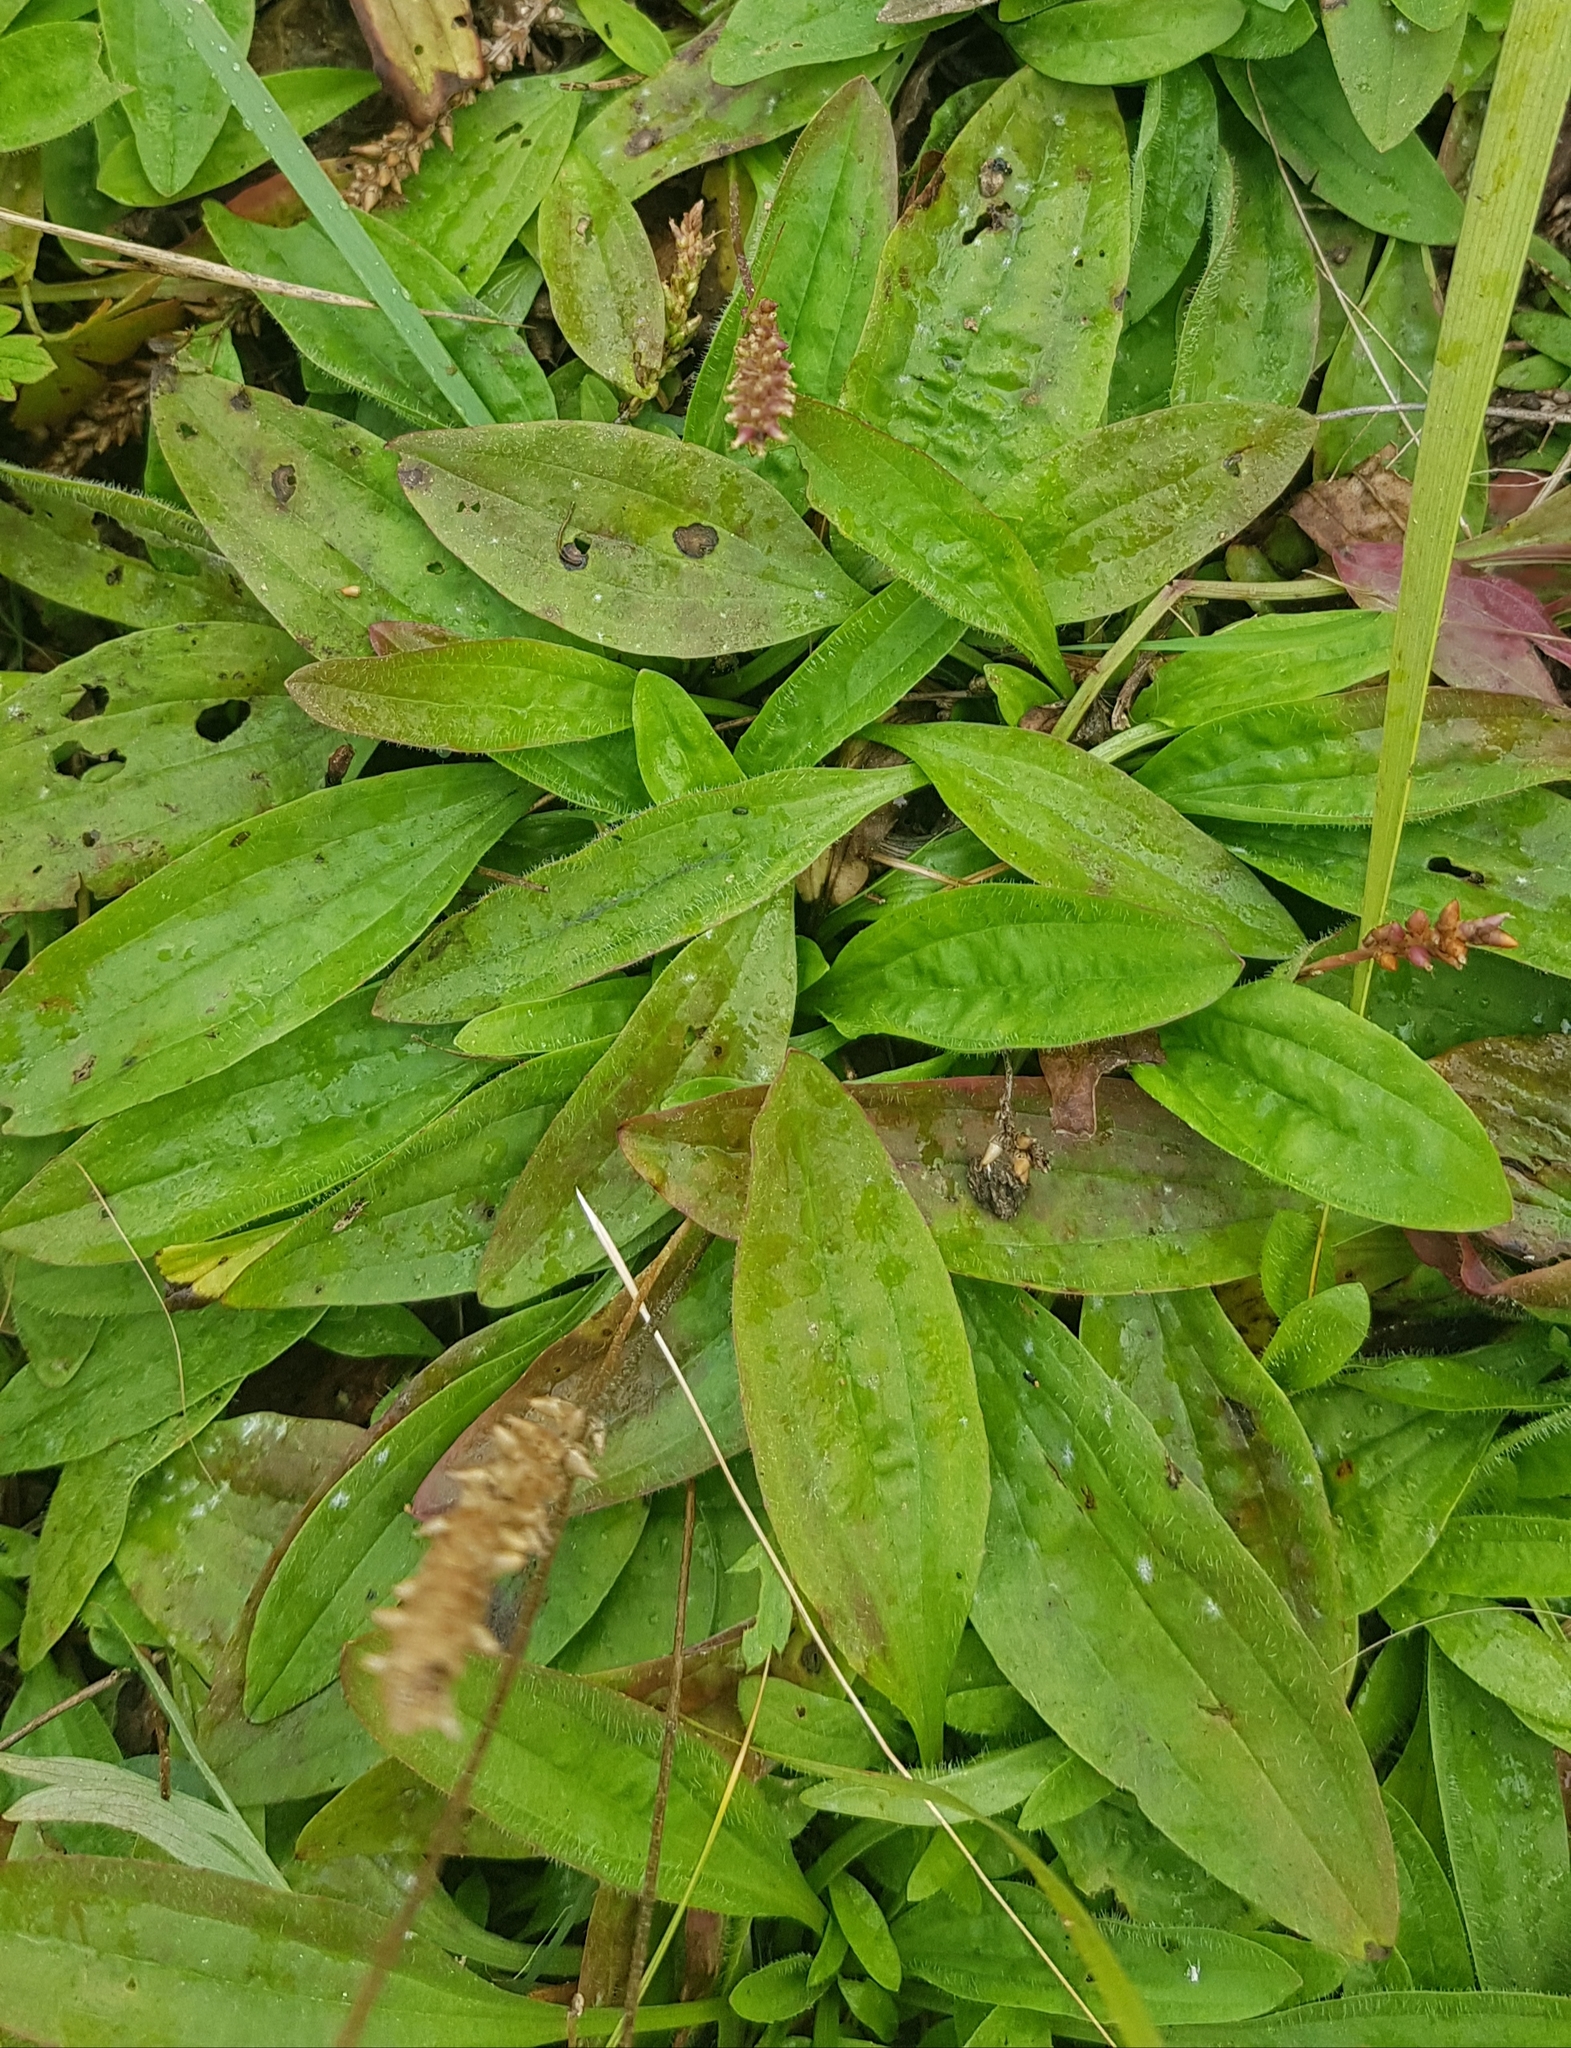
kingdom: Plantae
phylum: Tracheophyta
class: Magnoliopsida
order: Lamiales
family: Plantaginaceae
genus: Plantago
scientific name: Plantago depressa
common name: Depressed plantain
